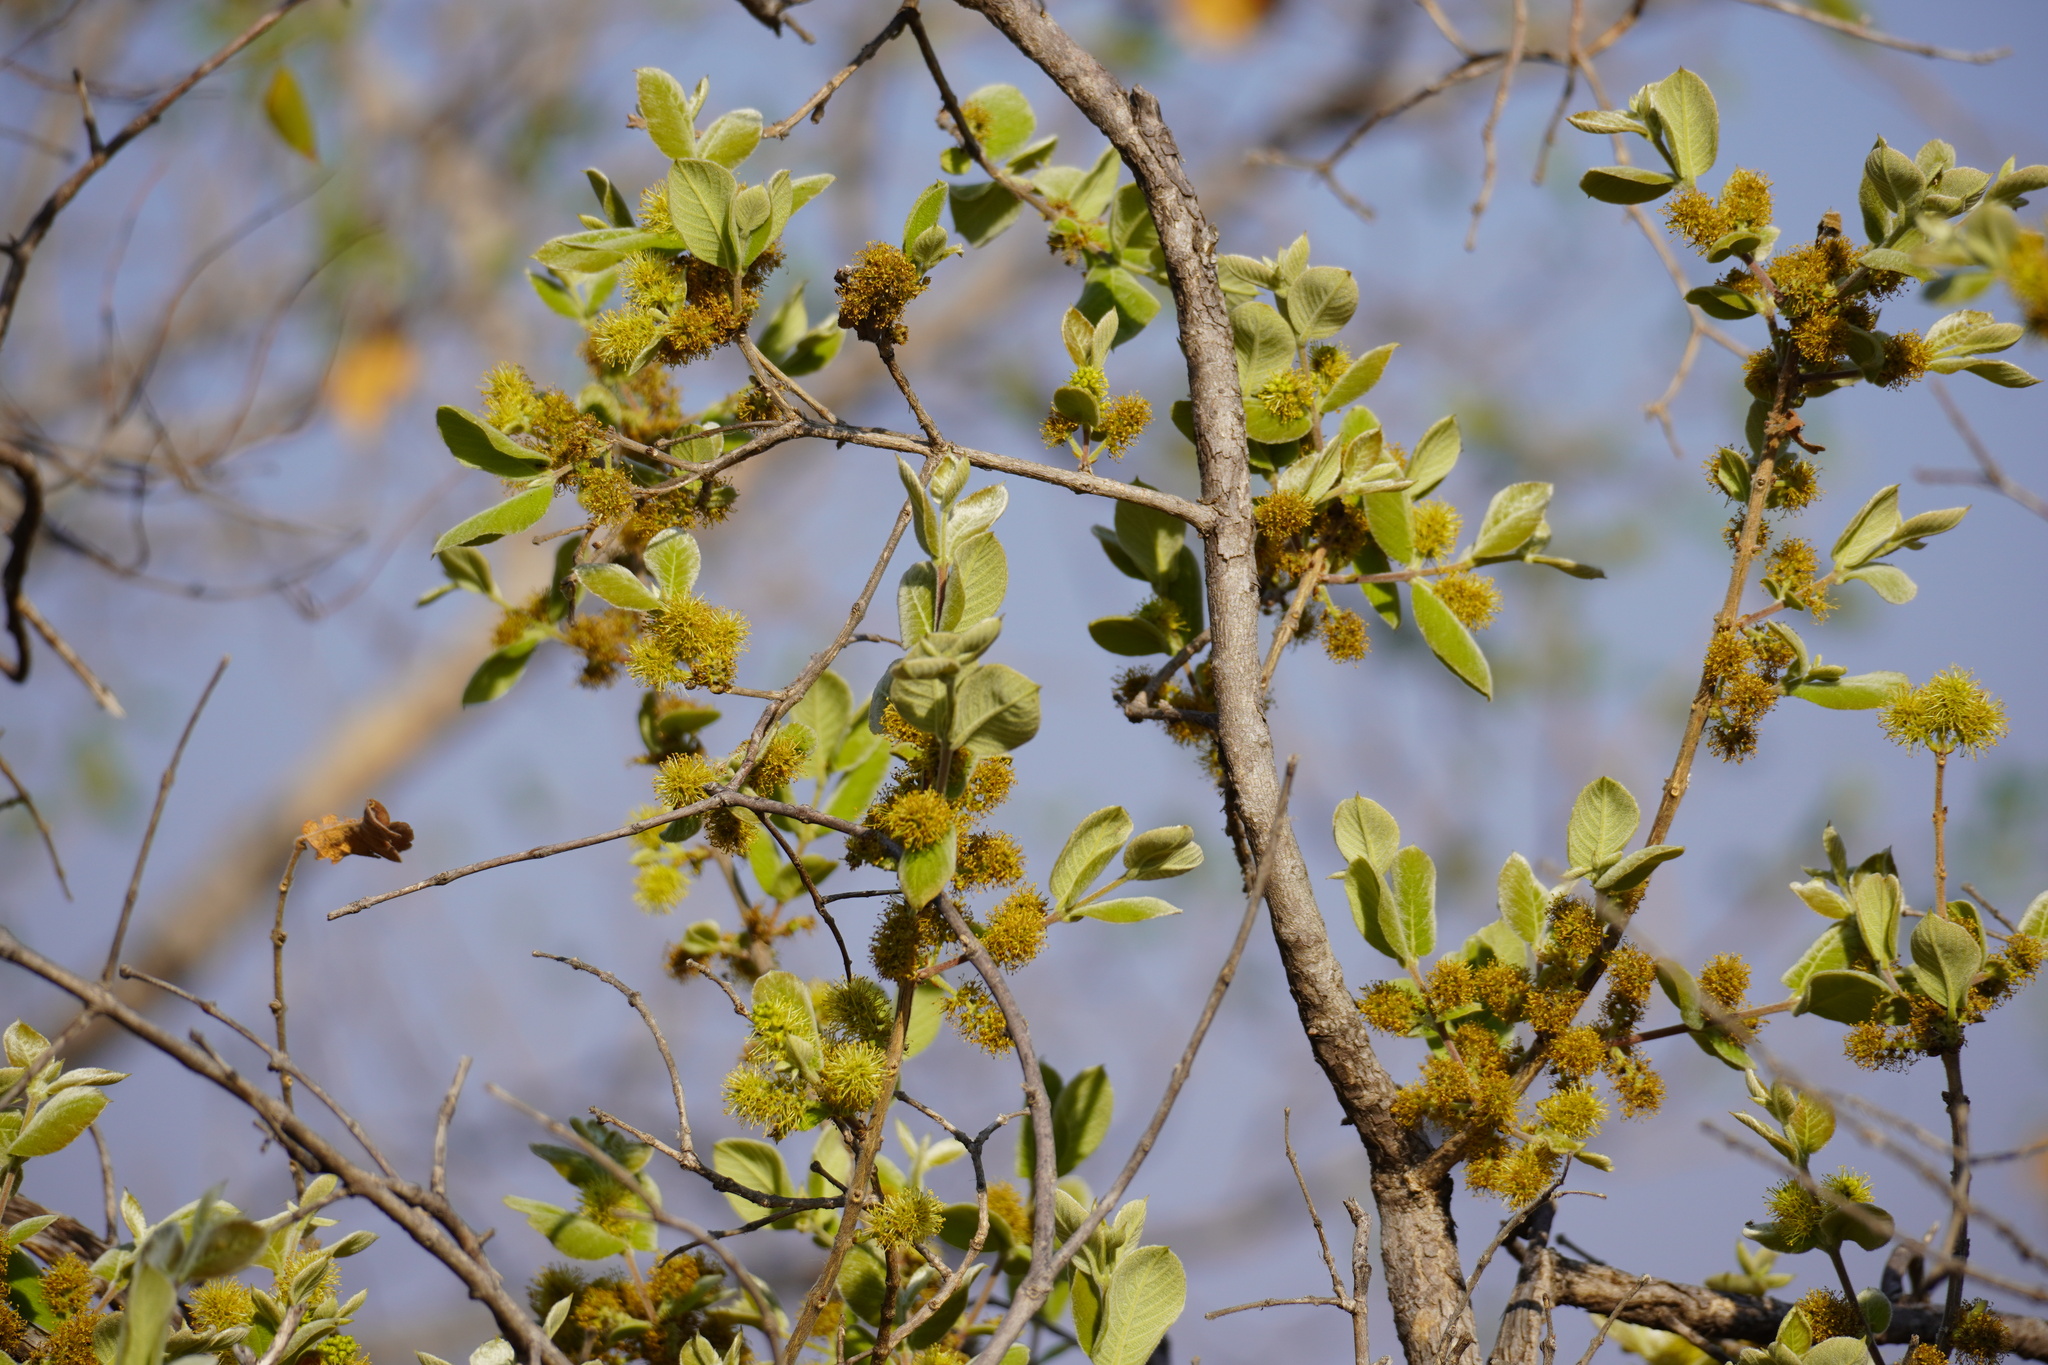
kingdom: Plantae
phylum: Tracheophyta
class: Magnoliopsida
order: Myrtales
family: Combretaceae
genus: Combretum
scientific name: Combretum molle
